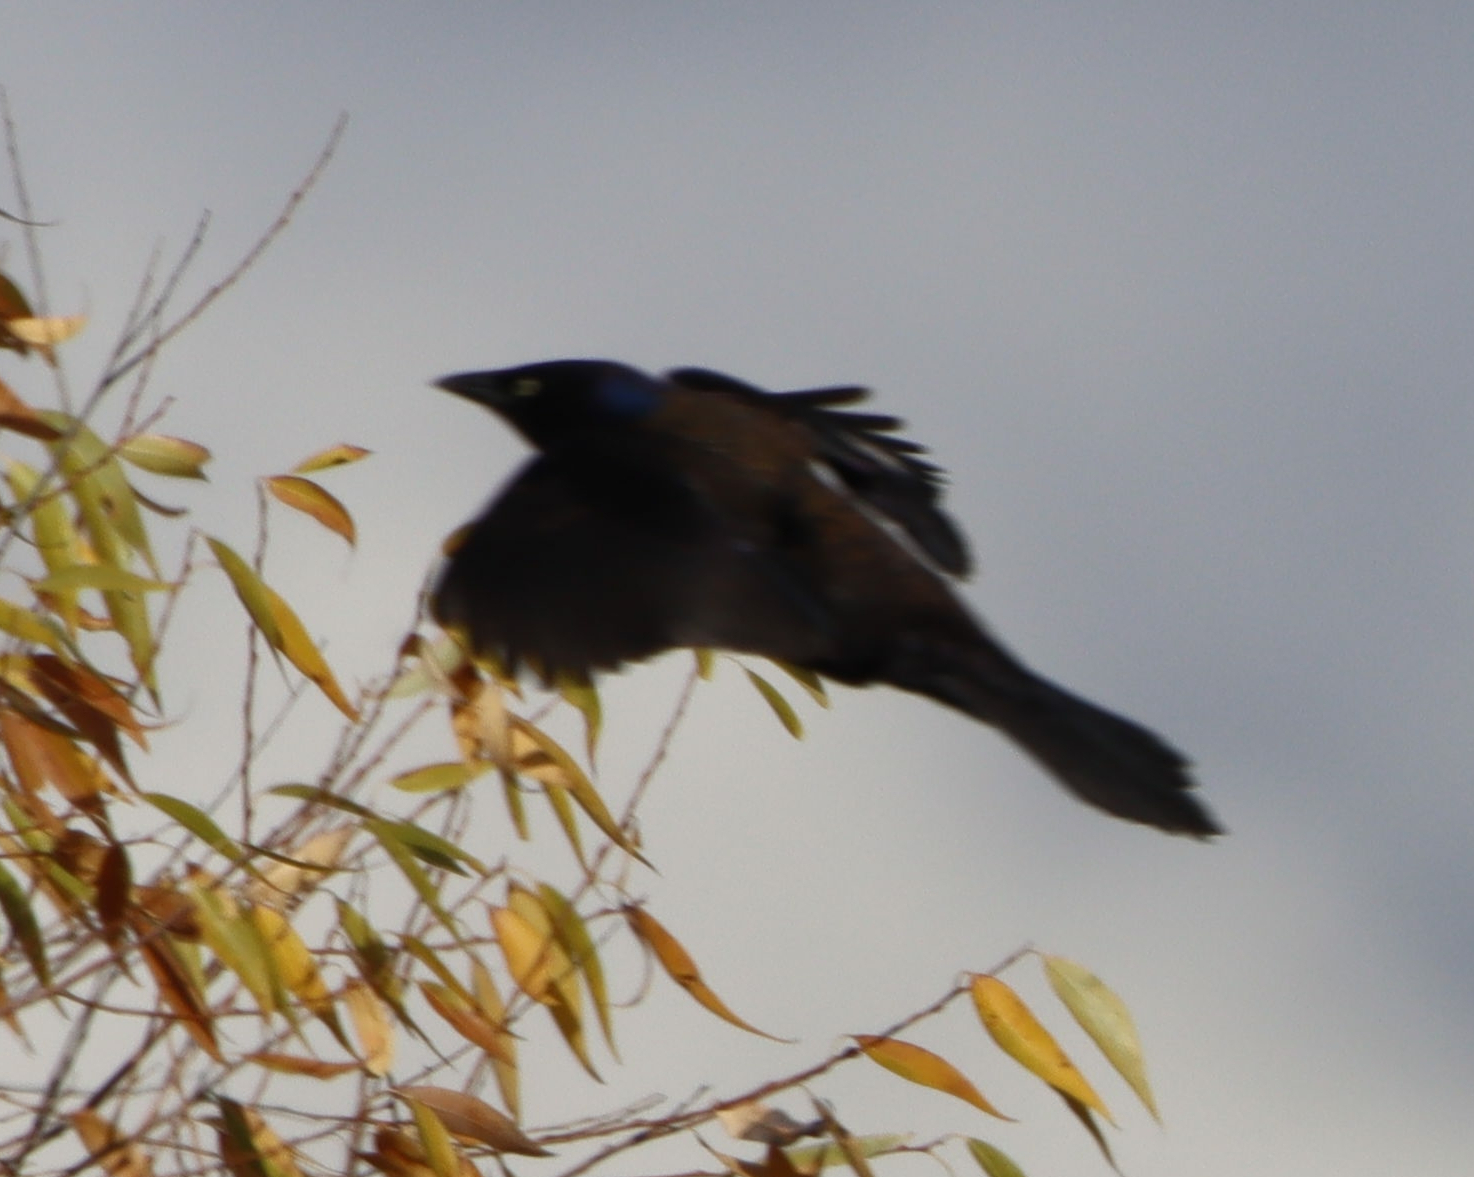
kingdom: Animalia
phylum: Chordata
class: Aves
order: Passeriformes
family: Icteridae
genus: Quiscalus
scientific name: Quiscalus quiscula
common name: Common grackle
